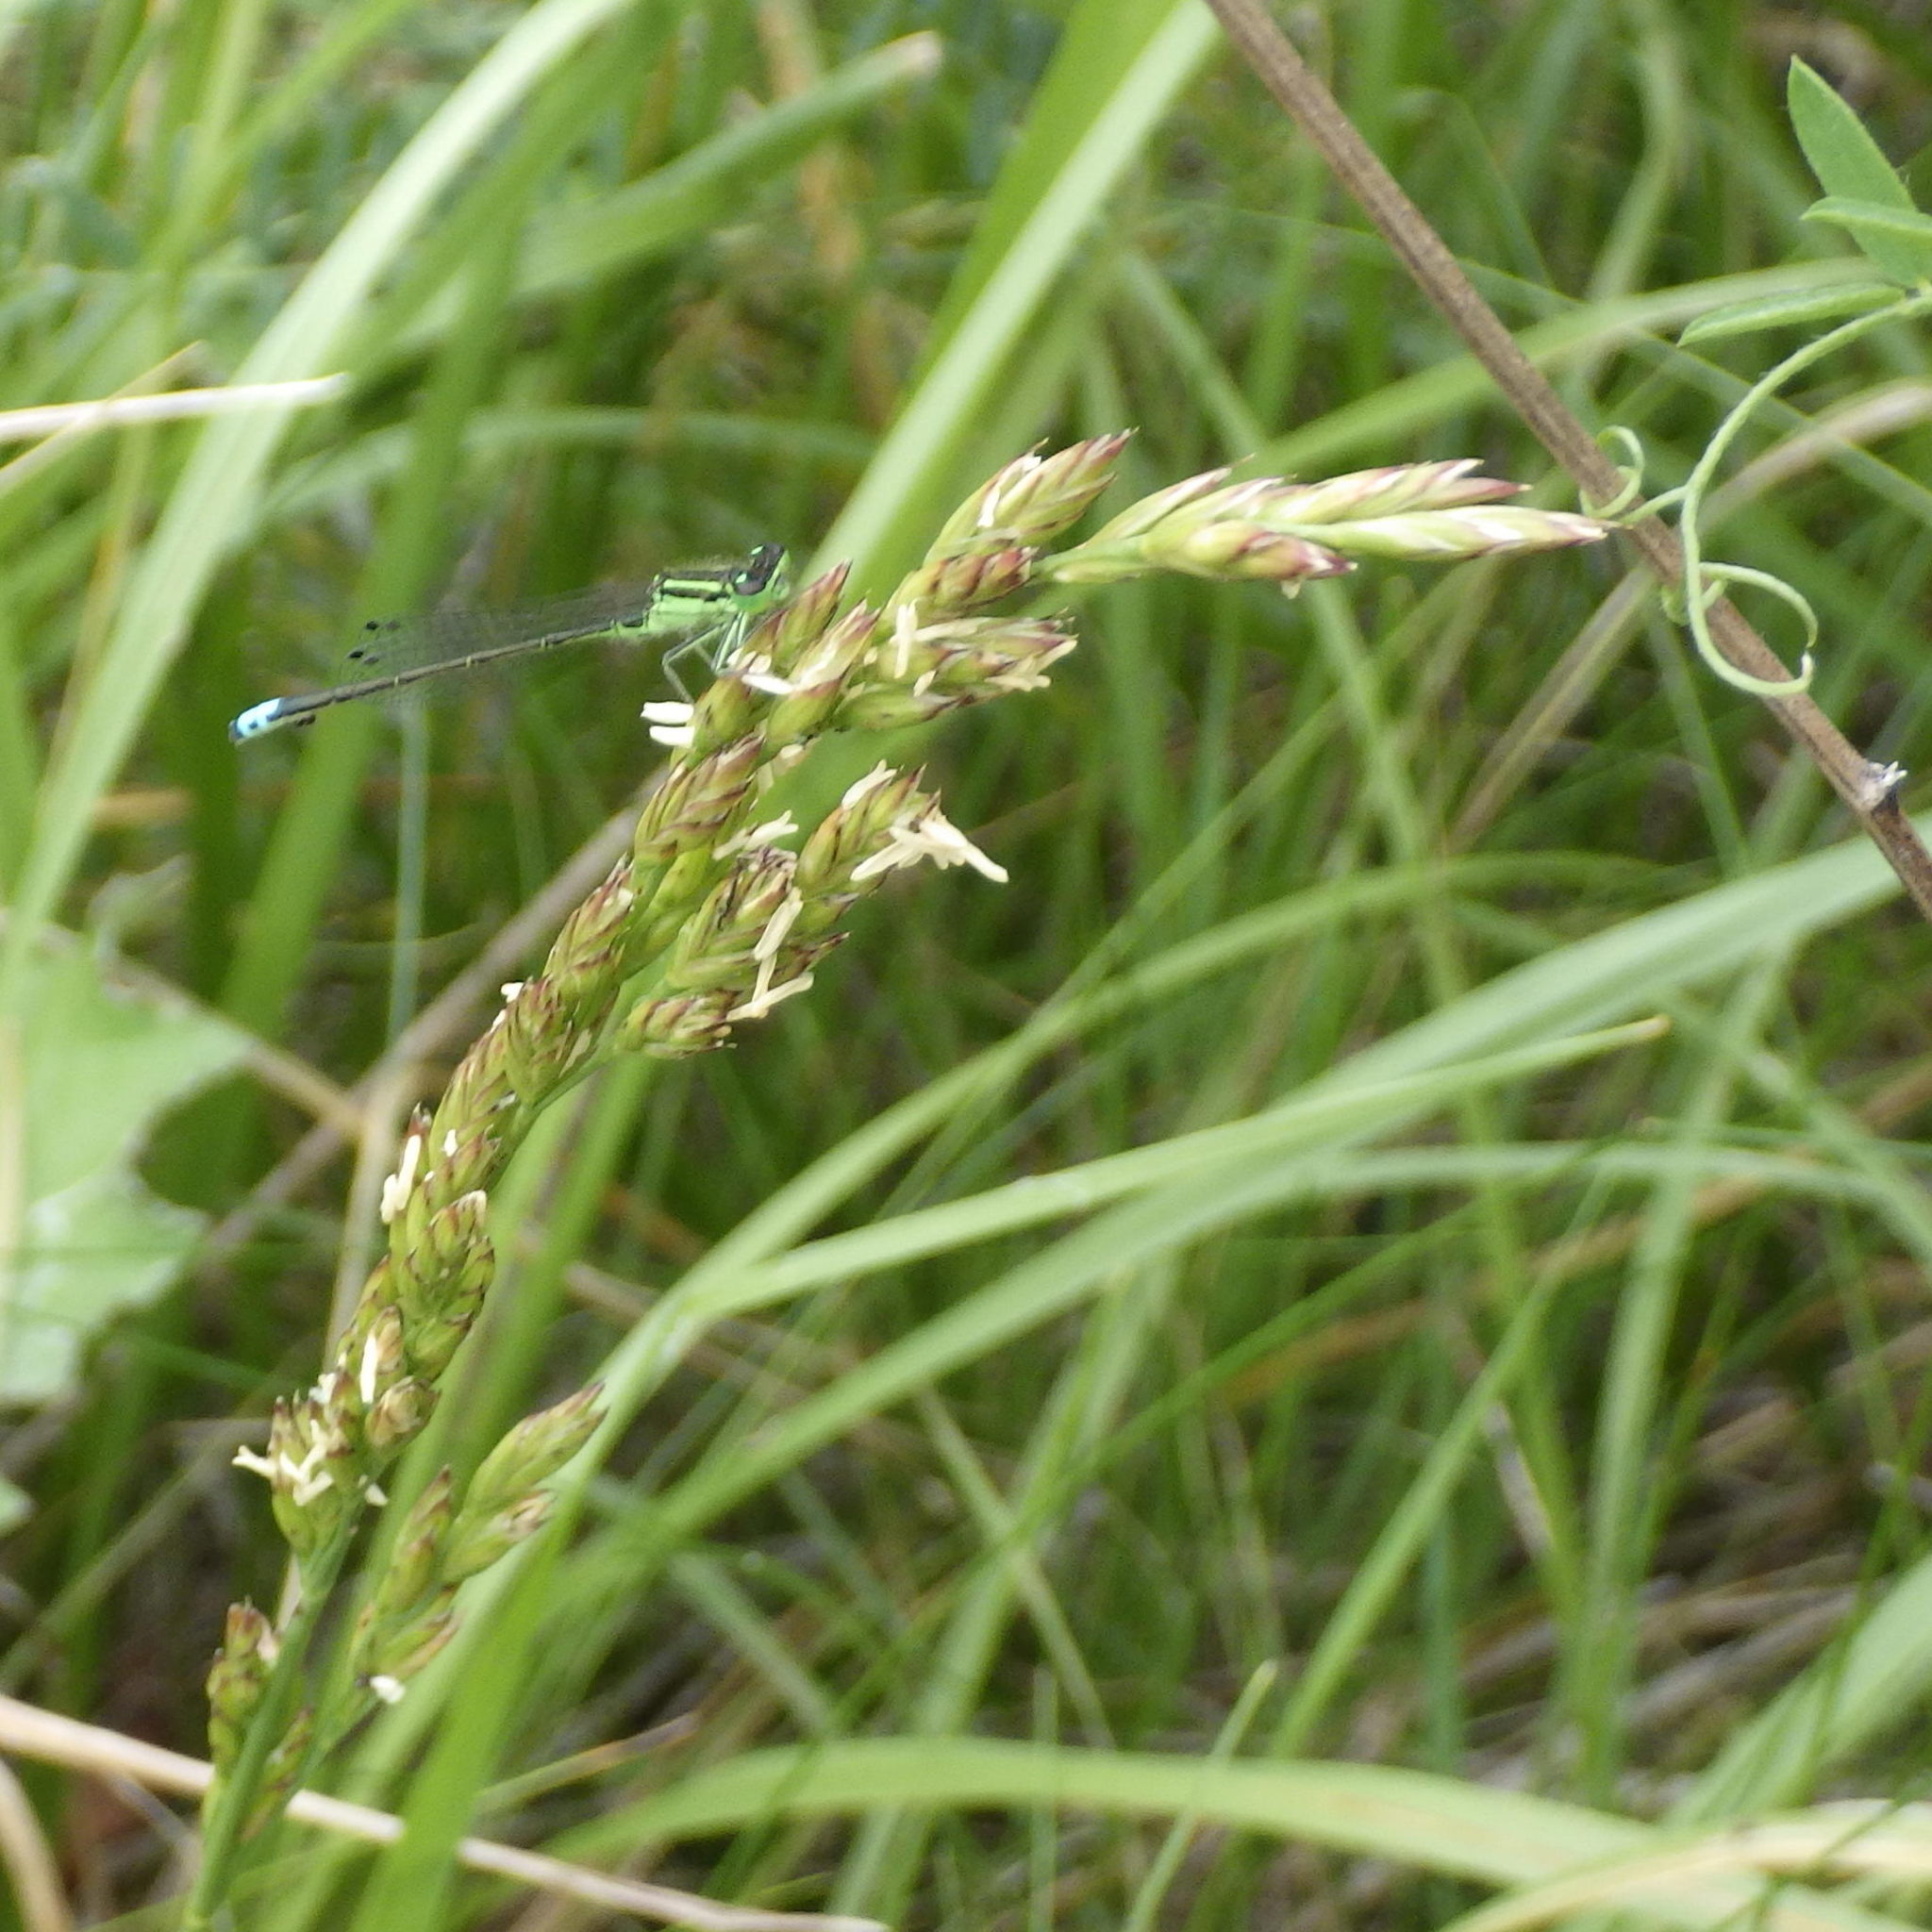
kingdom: Animalia
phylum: Arthropoda
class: Insecta
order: Odonata
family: Coenagrionidae
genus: Ischnura
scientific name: Ischnura verticalis
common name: Eastern forktail
